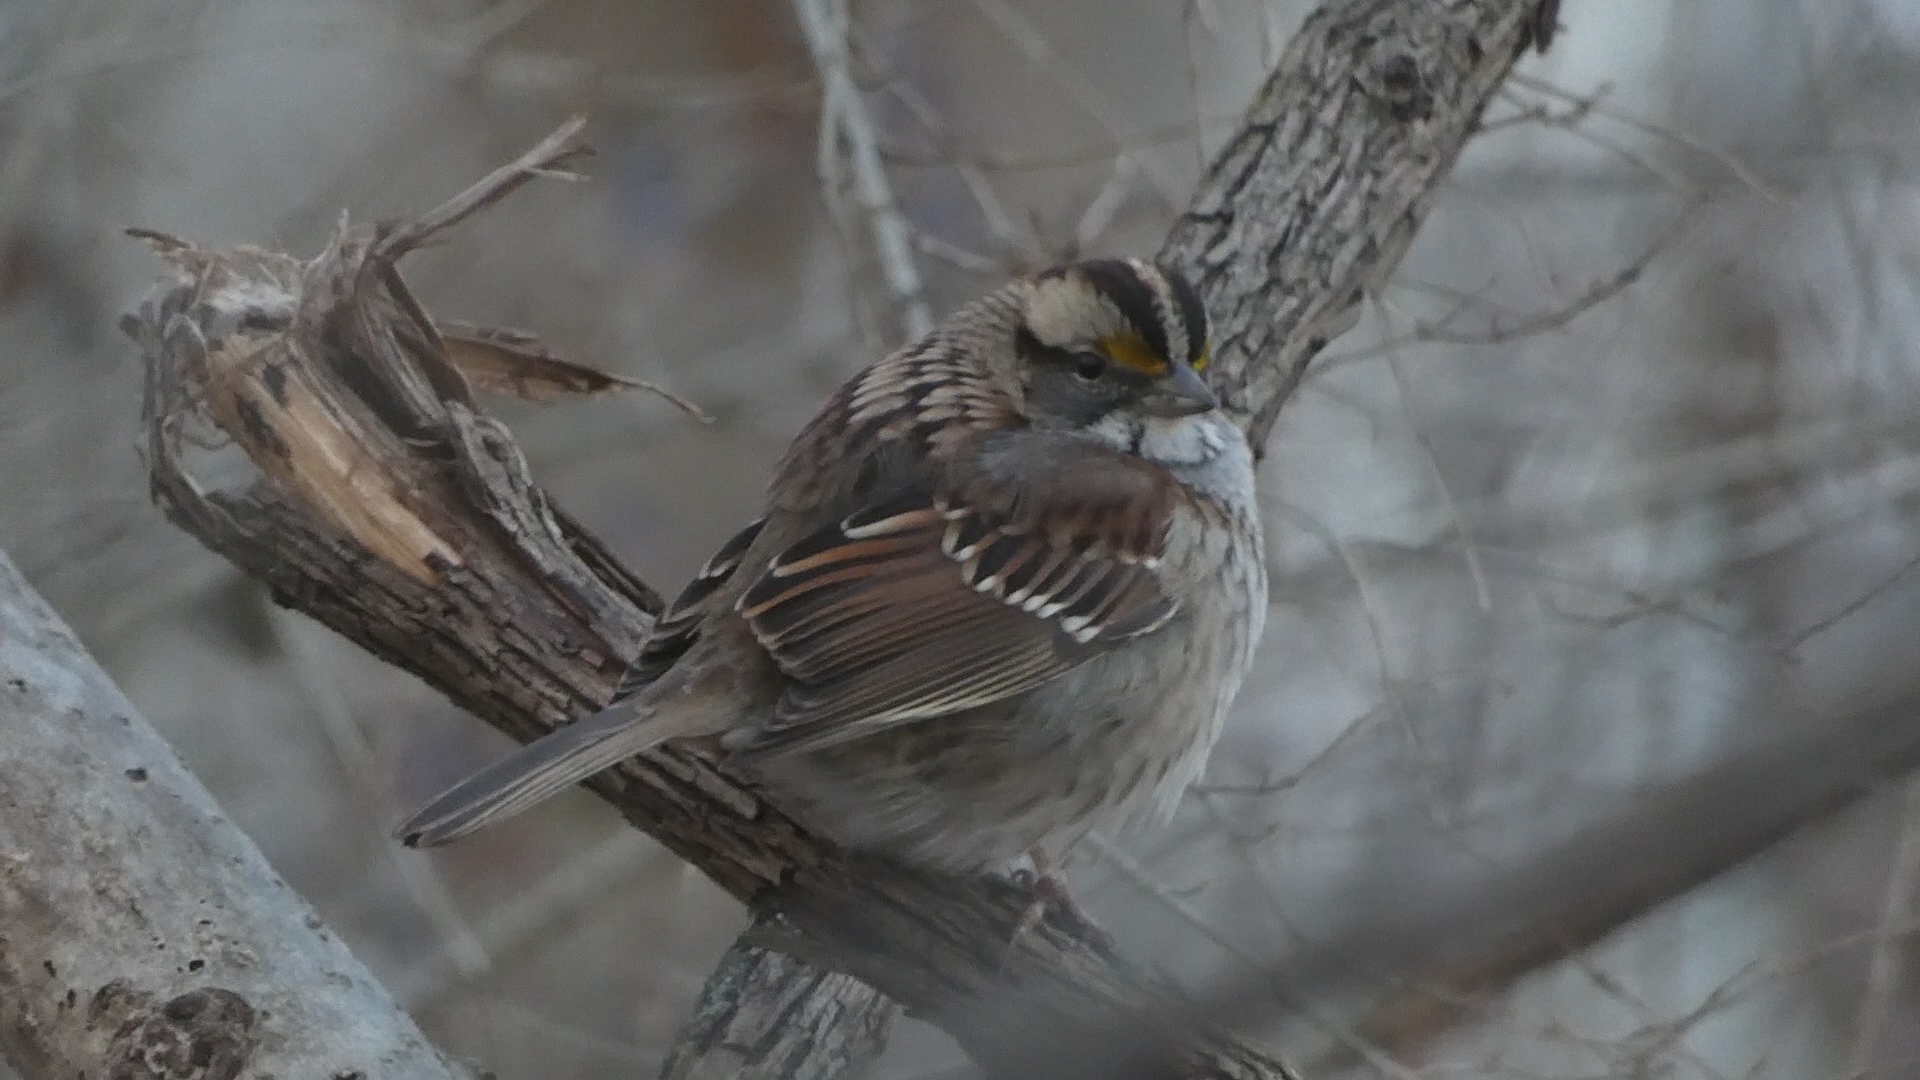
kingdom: Animalia
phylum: Chordata
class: Aves
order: Passeriformes
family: Passerellidae
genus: Zonotrichia
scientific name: Zonotrichia albicollis
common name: White-throated sparrow
